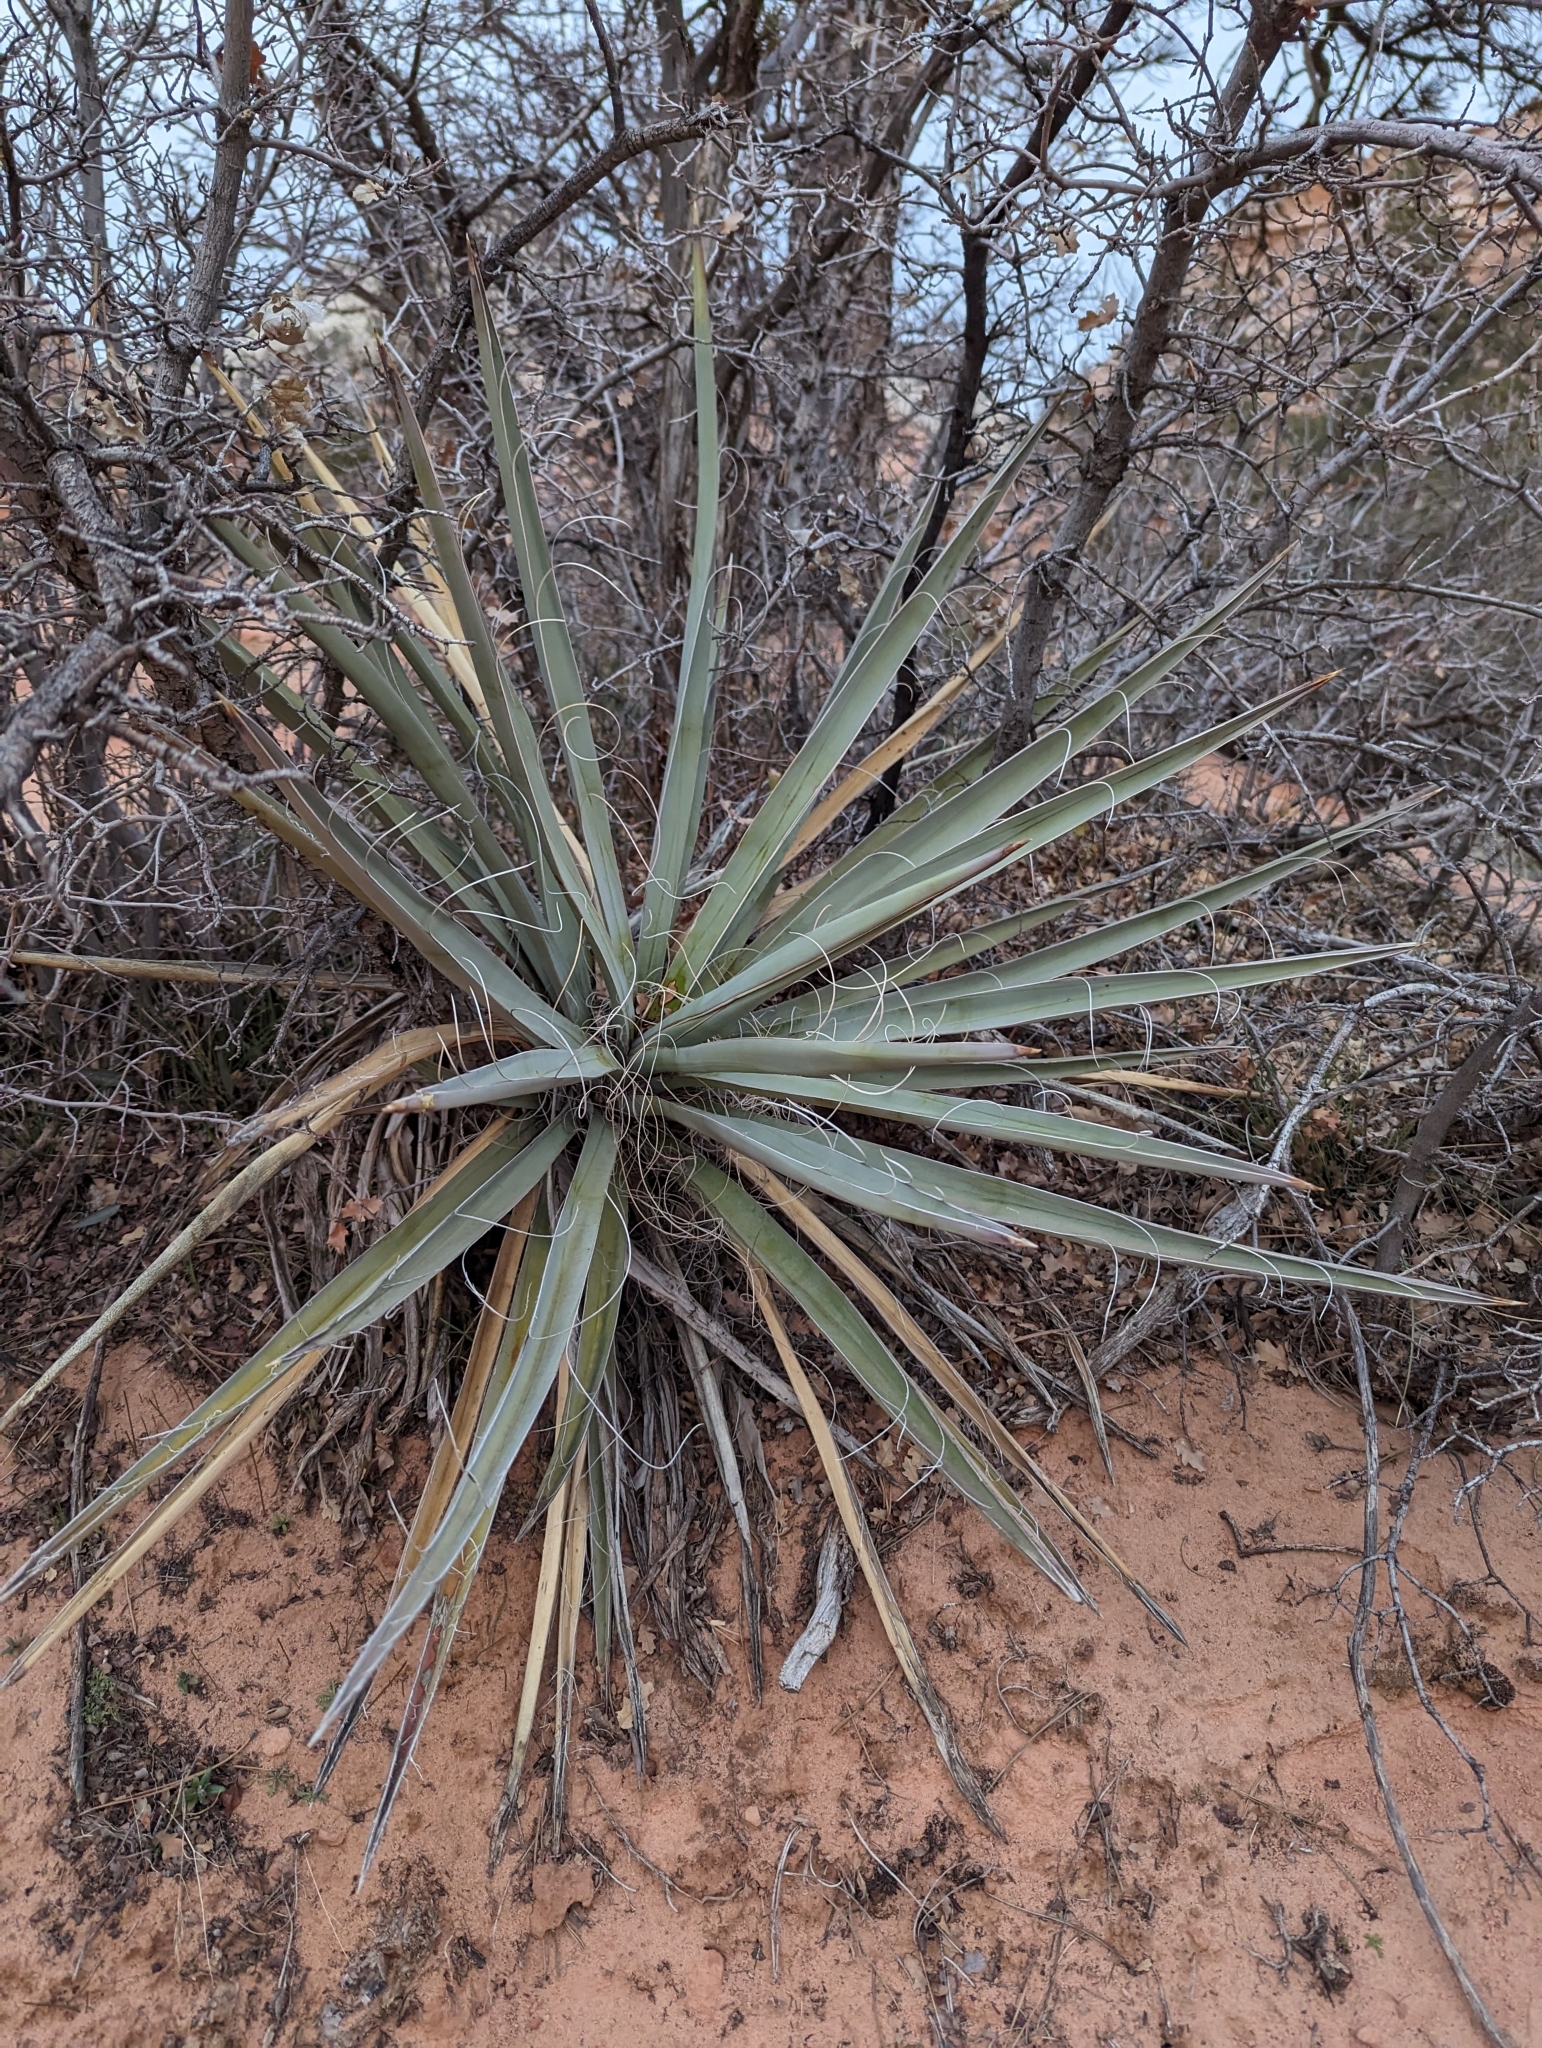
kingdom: Plantae
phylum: Tracheophyta
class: Liliopsida
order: Asparagales
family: Asparagaceae
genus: Yucca
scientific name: Yucca baccata
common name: Banana yucca
